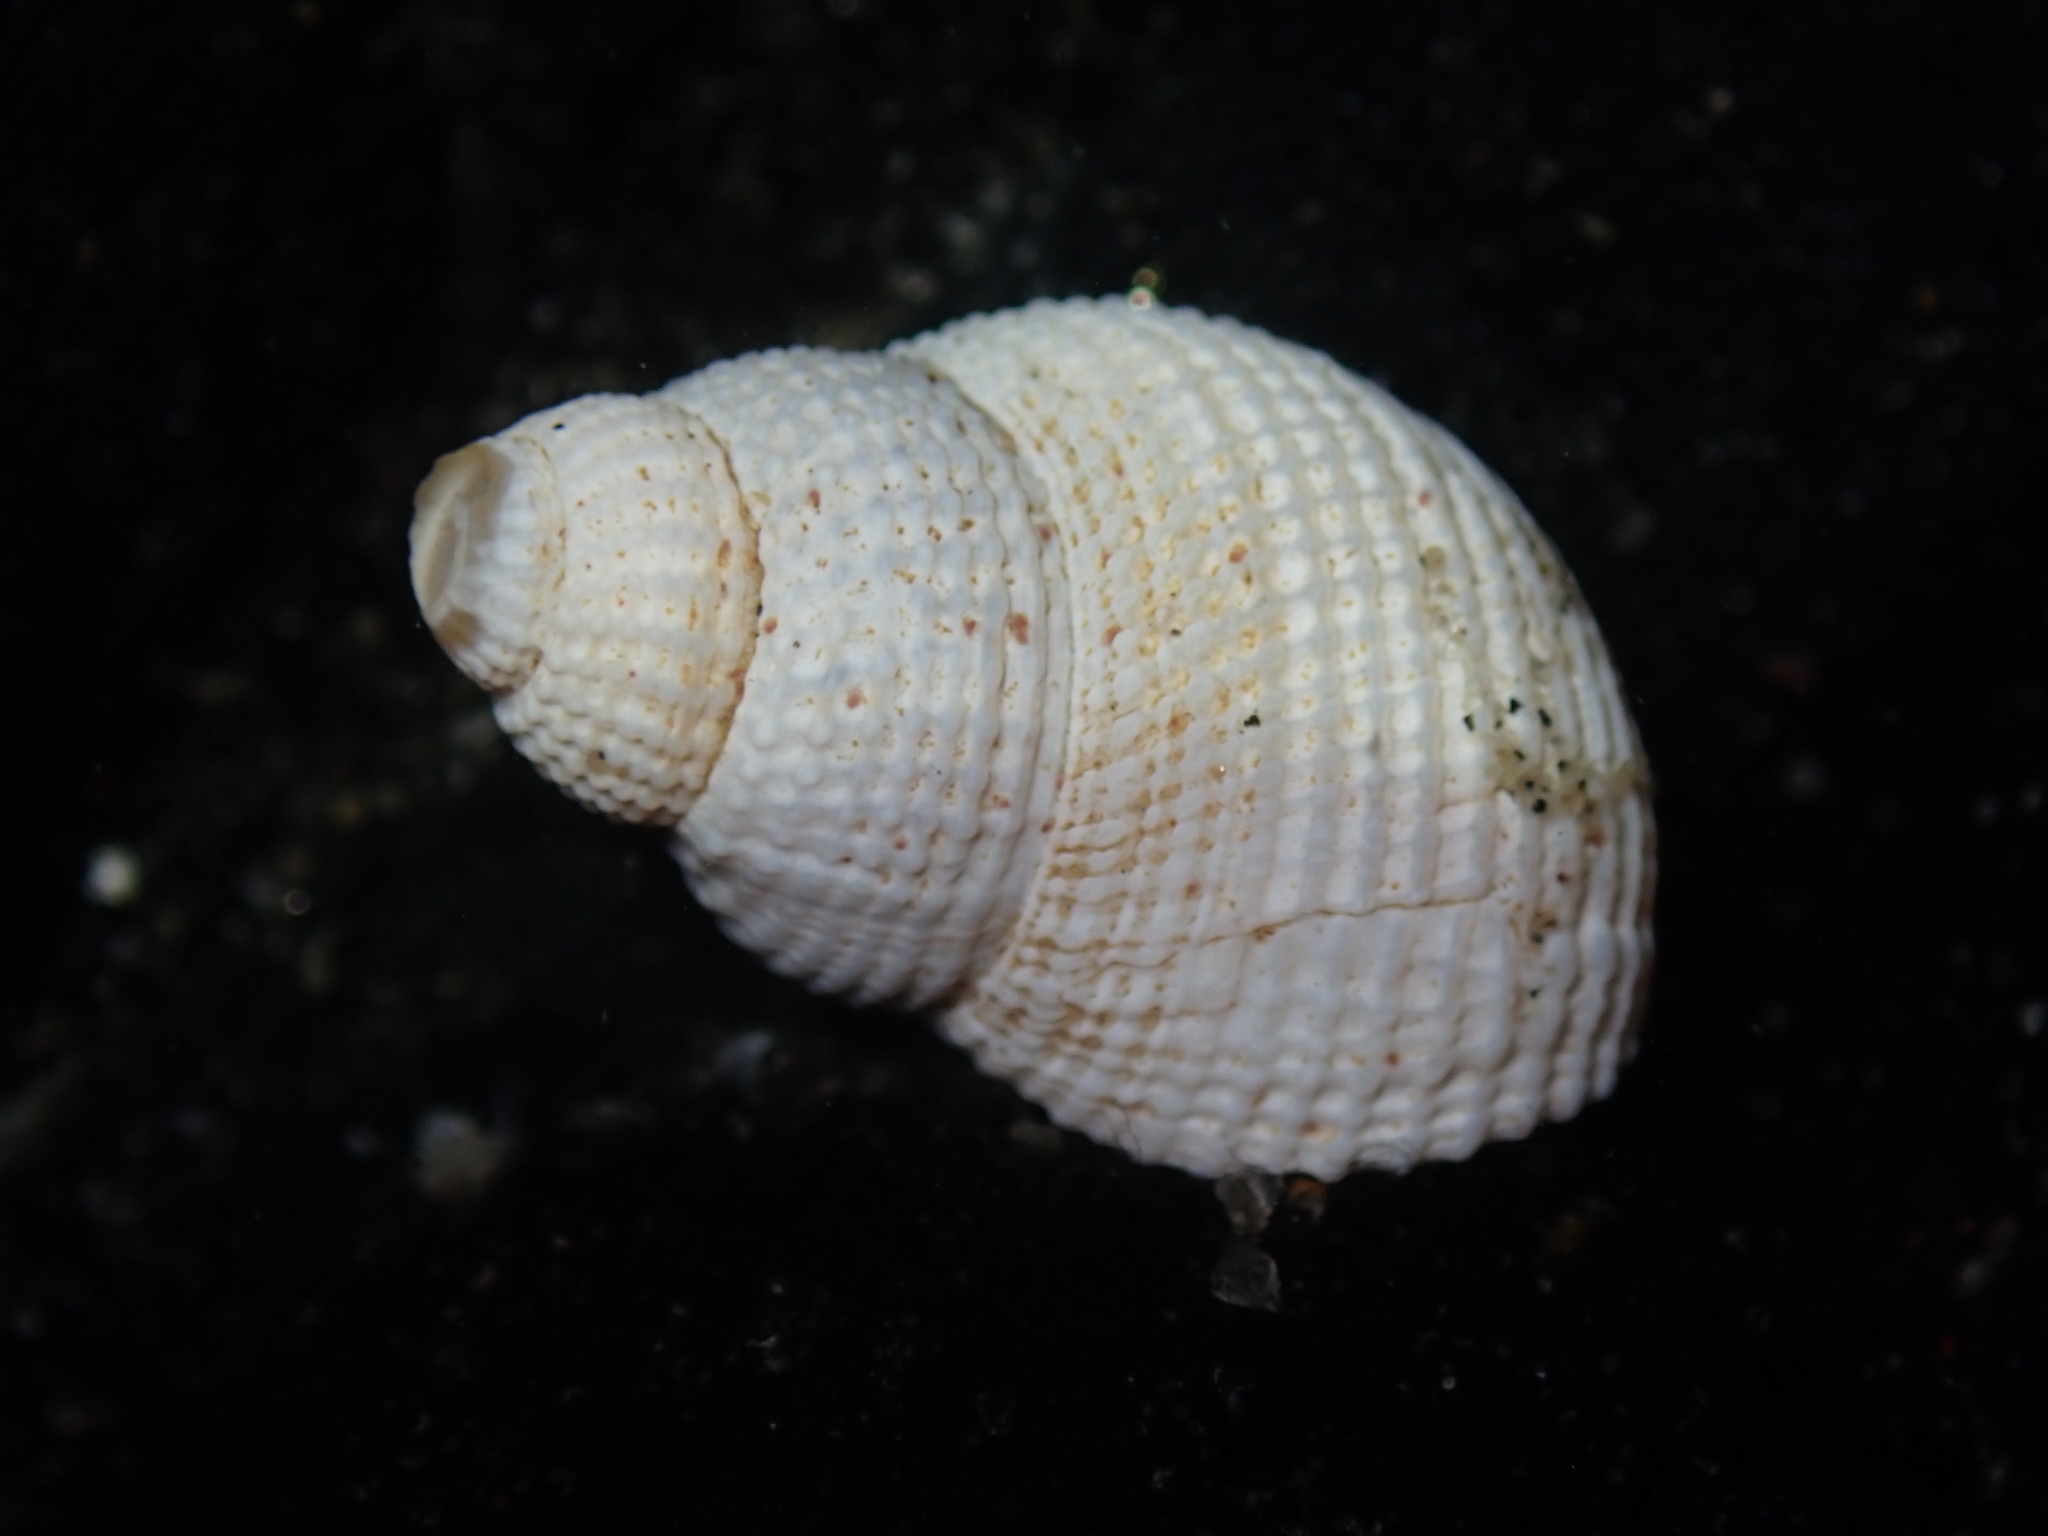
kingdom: Animalia
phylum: Mollusca
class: Gastropoda
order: Neogastropoda
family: Nassariidae
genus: Caesia
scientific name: Caesia perpinguis
